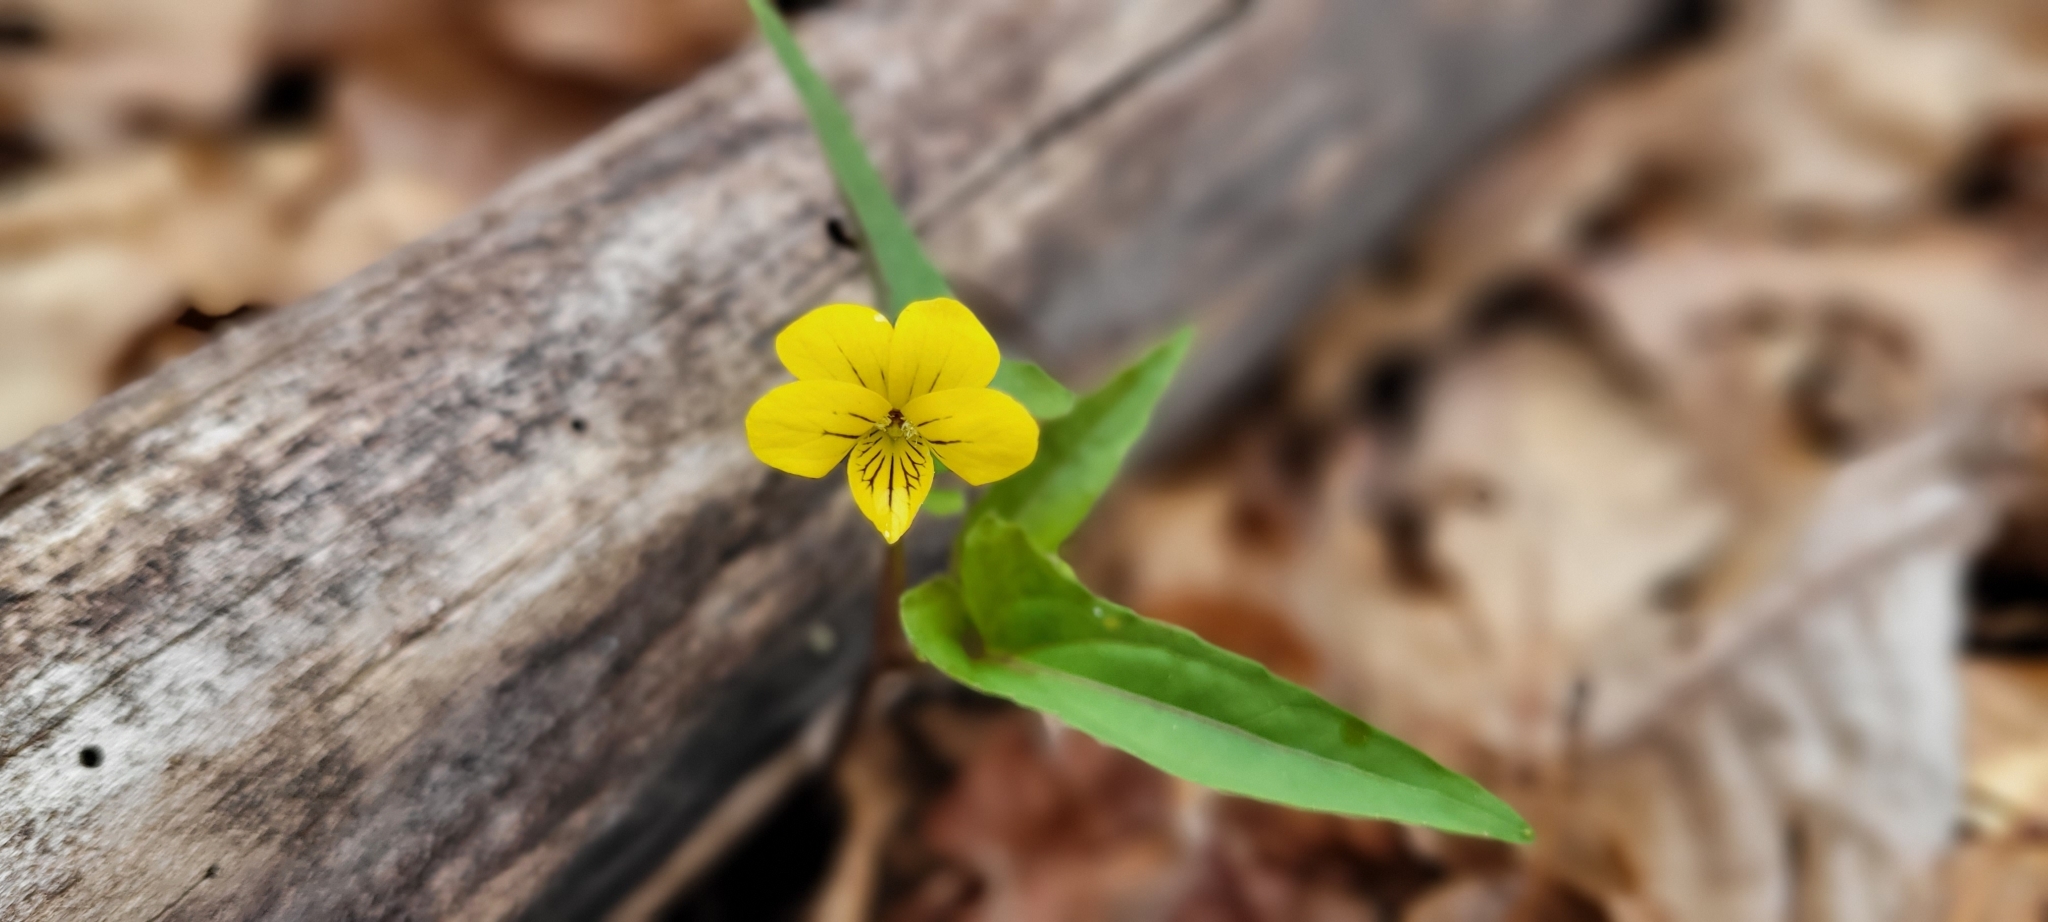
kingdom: Plantae
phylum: Tracheophyta
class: Magnoliopsida
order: Malpighiales
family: Violaceae
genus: Viola
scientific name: Viola hastata
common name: Spear-leaf violet
